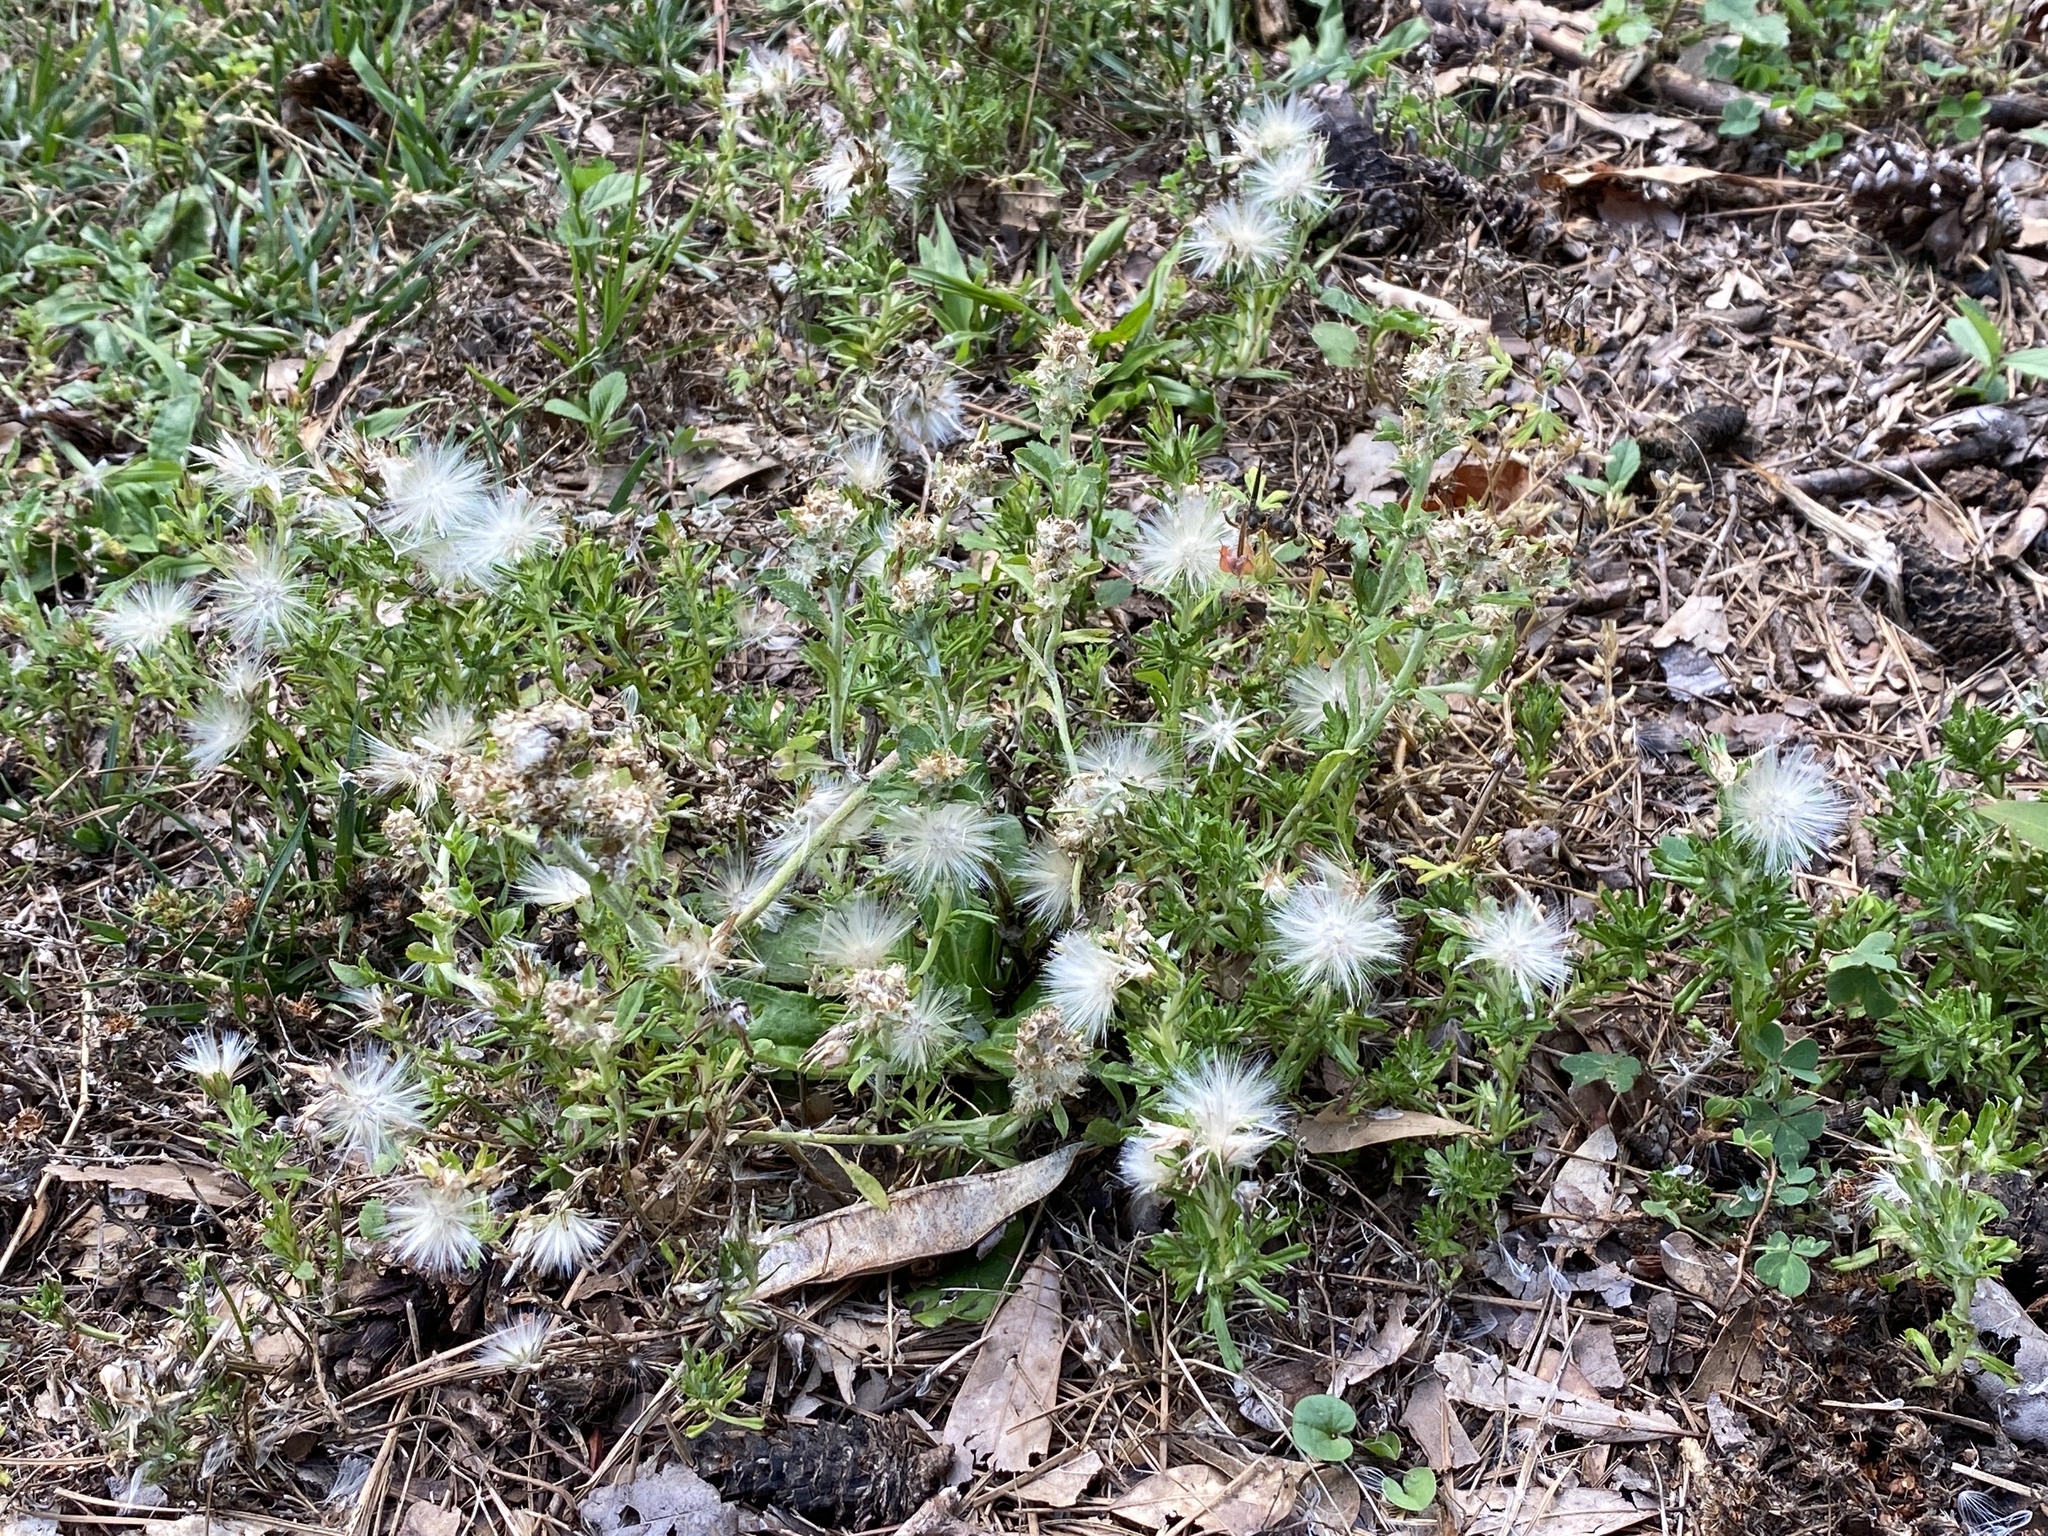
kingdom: Plantae
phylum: Tracheophyta
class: Magnoliopsida
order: Asterales
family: Asteraceae
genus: Facelis
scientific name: Facelis retusa
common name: Annual trampweed
